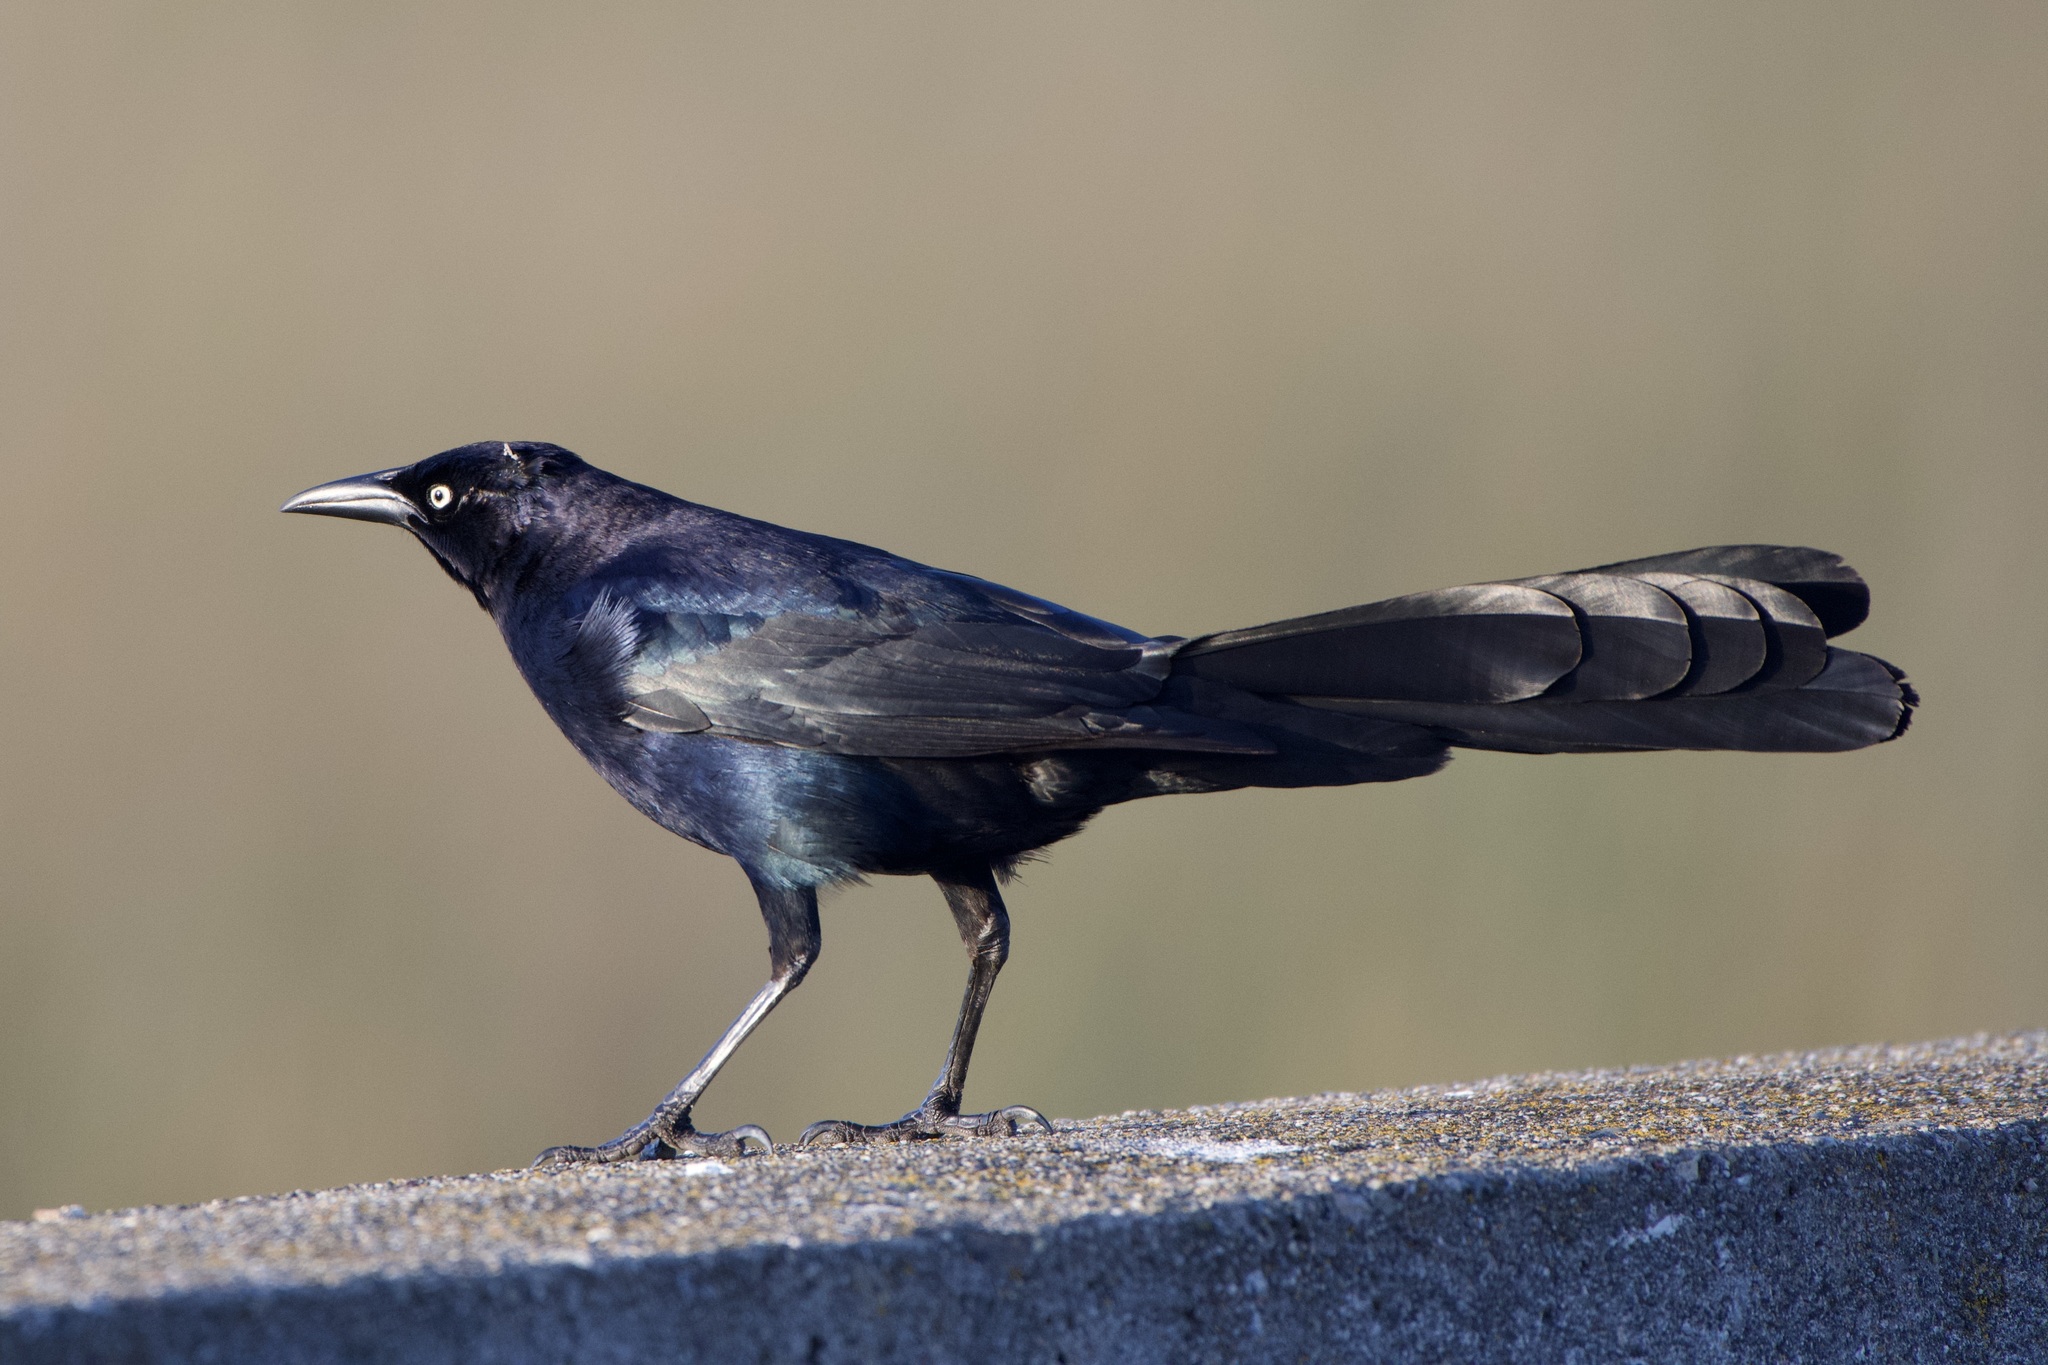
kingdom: Animalia
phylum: Chordata
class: Aves
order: Passeriformes
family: Icteridae
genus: Quiscalus
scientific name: Quiscalus mexicanus
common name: Great-tailed grackle
